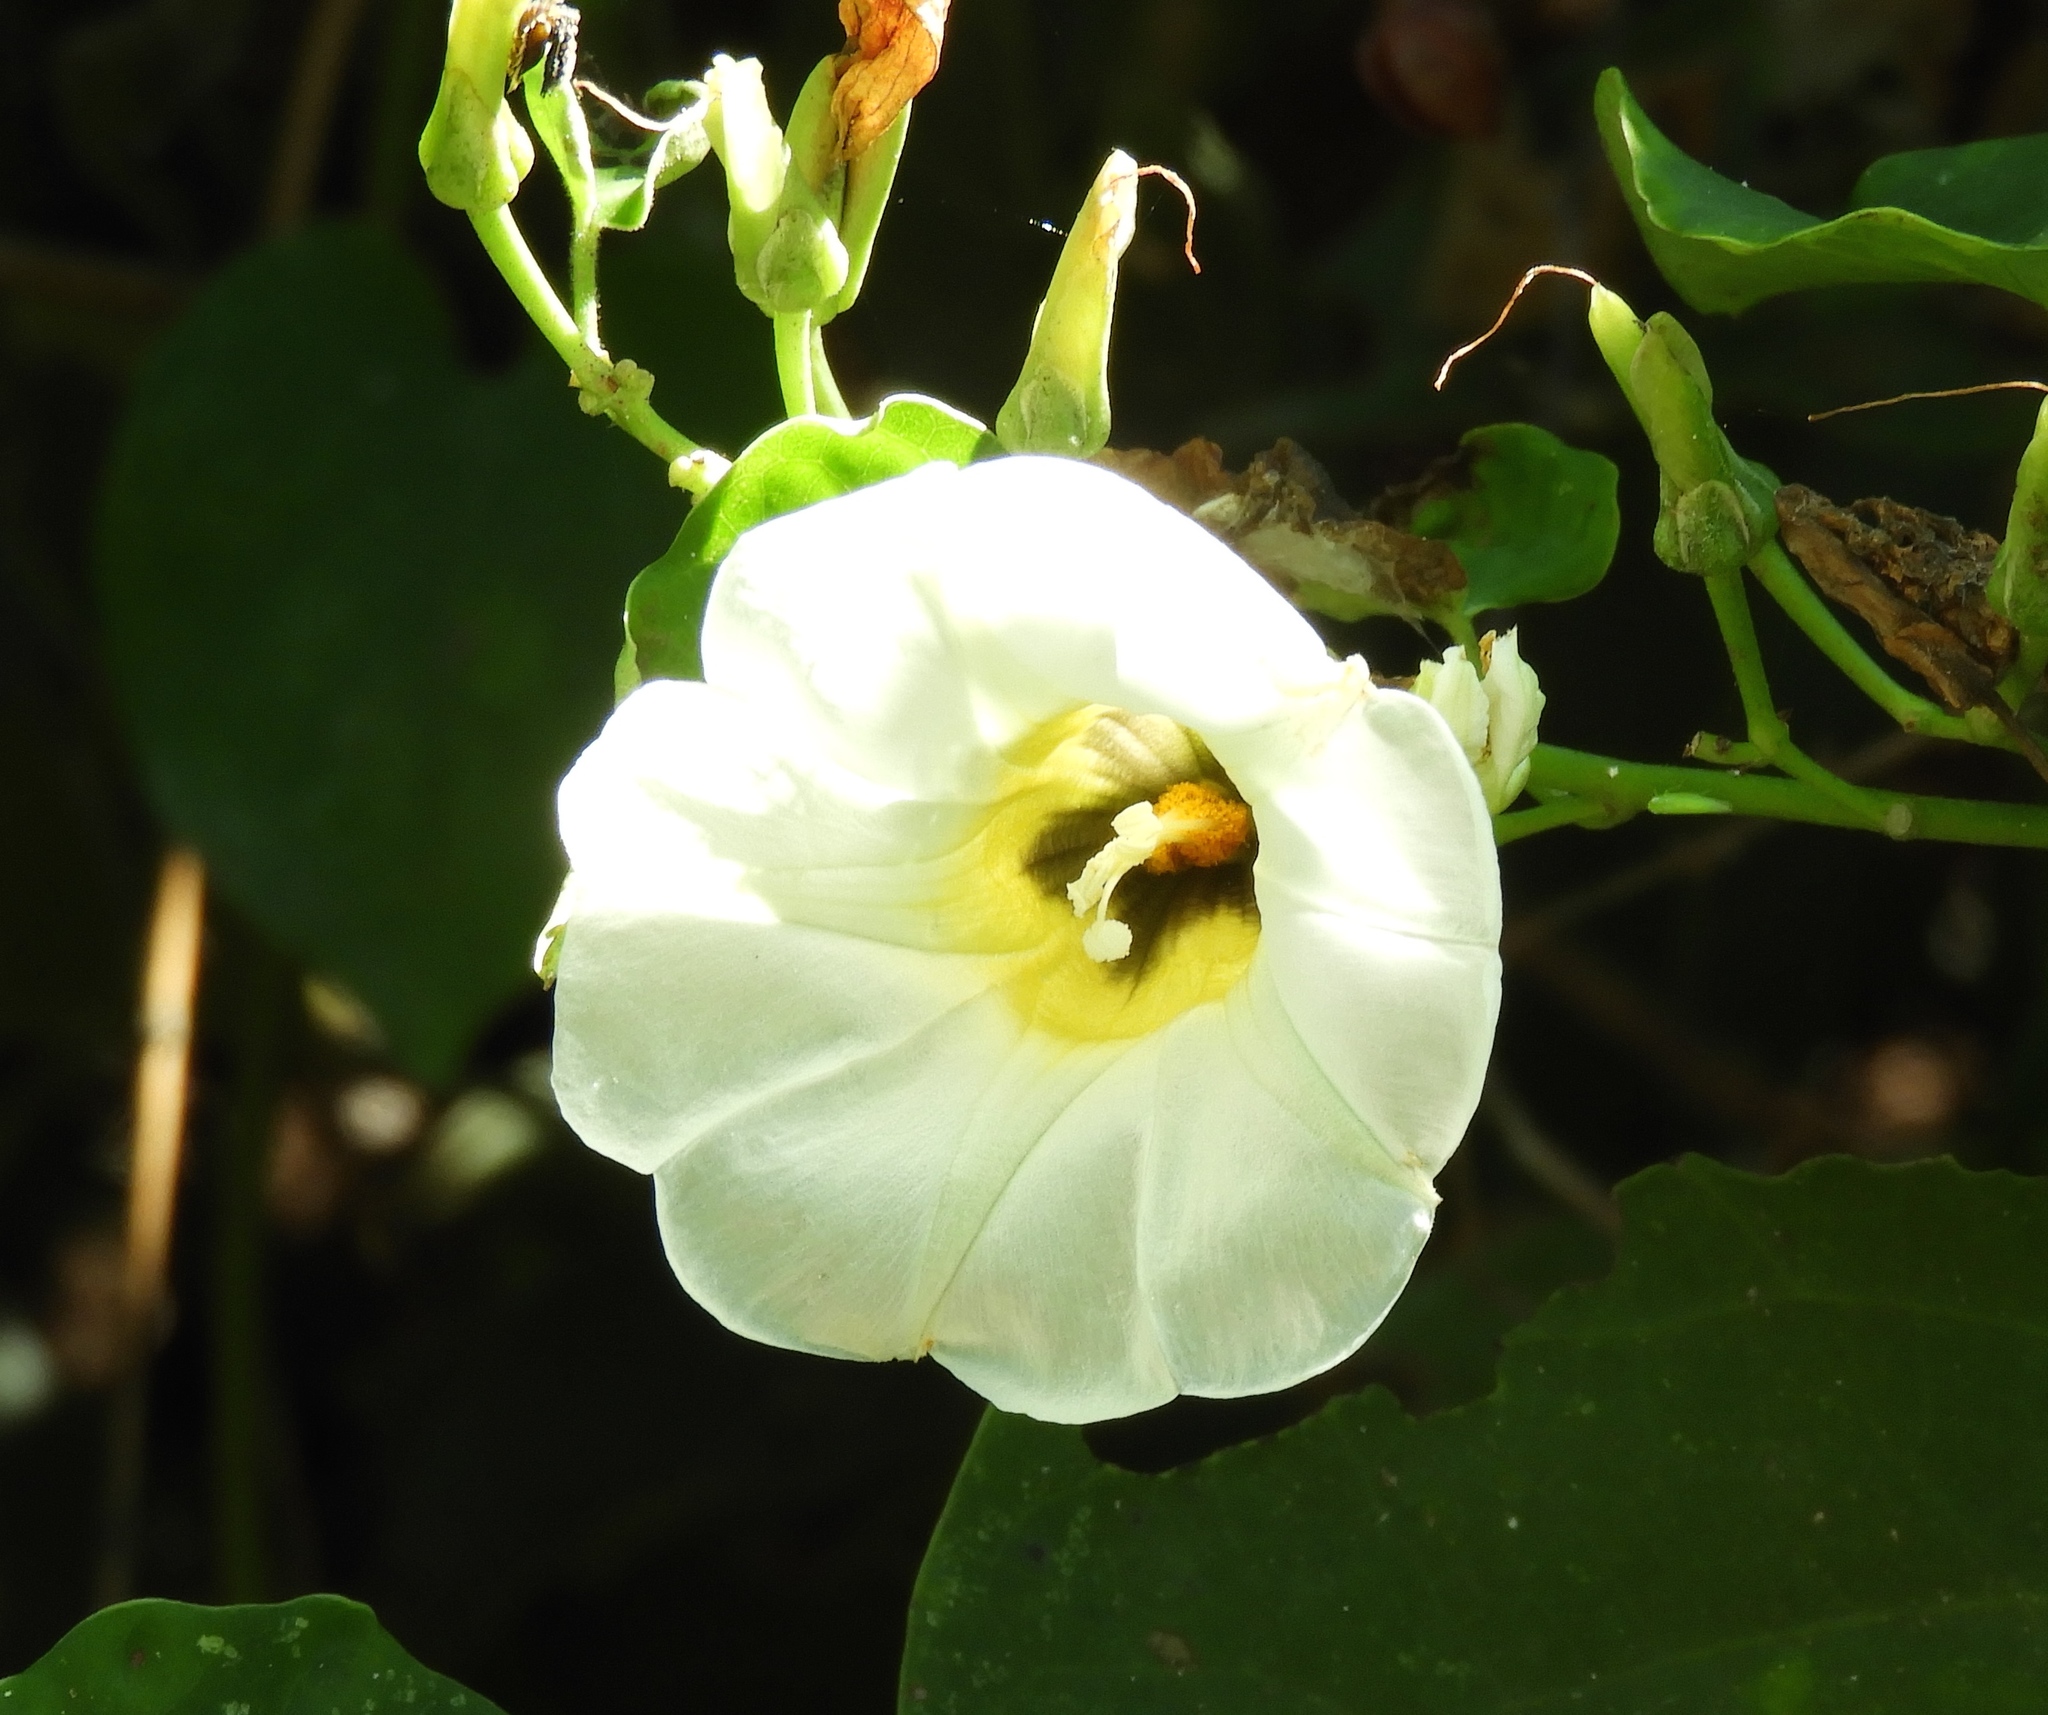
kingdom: Plantae
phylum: Tracheophyta
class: Magnoliopsida
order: Solanales
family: Convolvulaceae
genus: Ipomoea
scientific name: Ipomoea corymbosa
